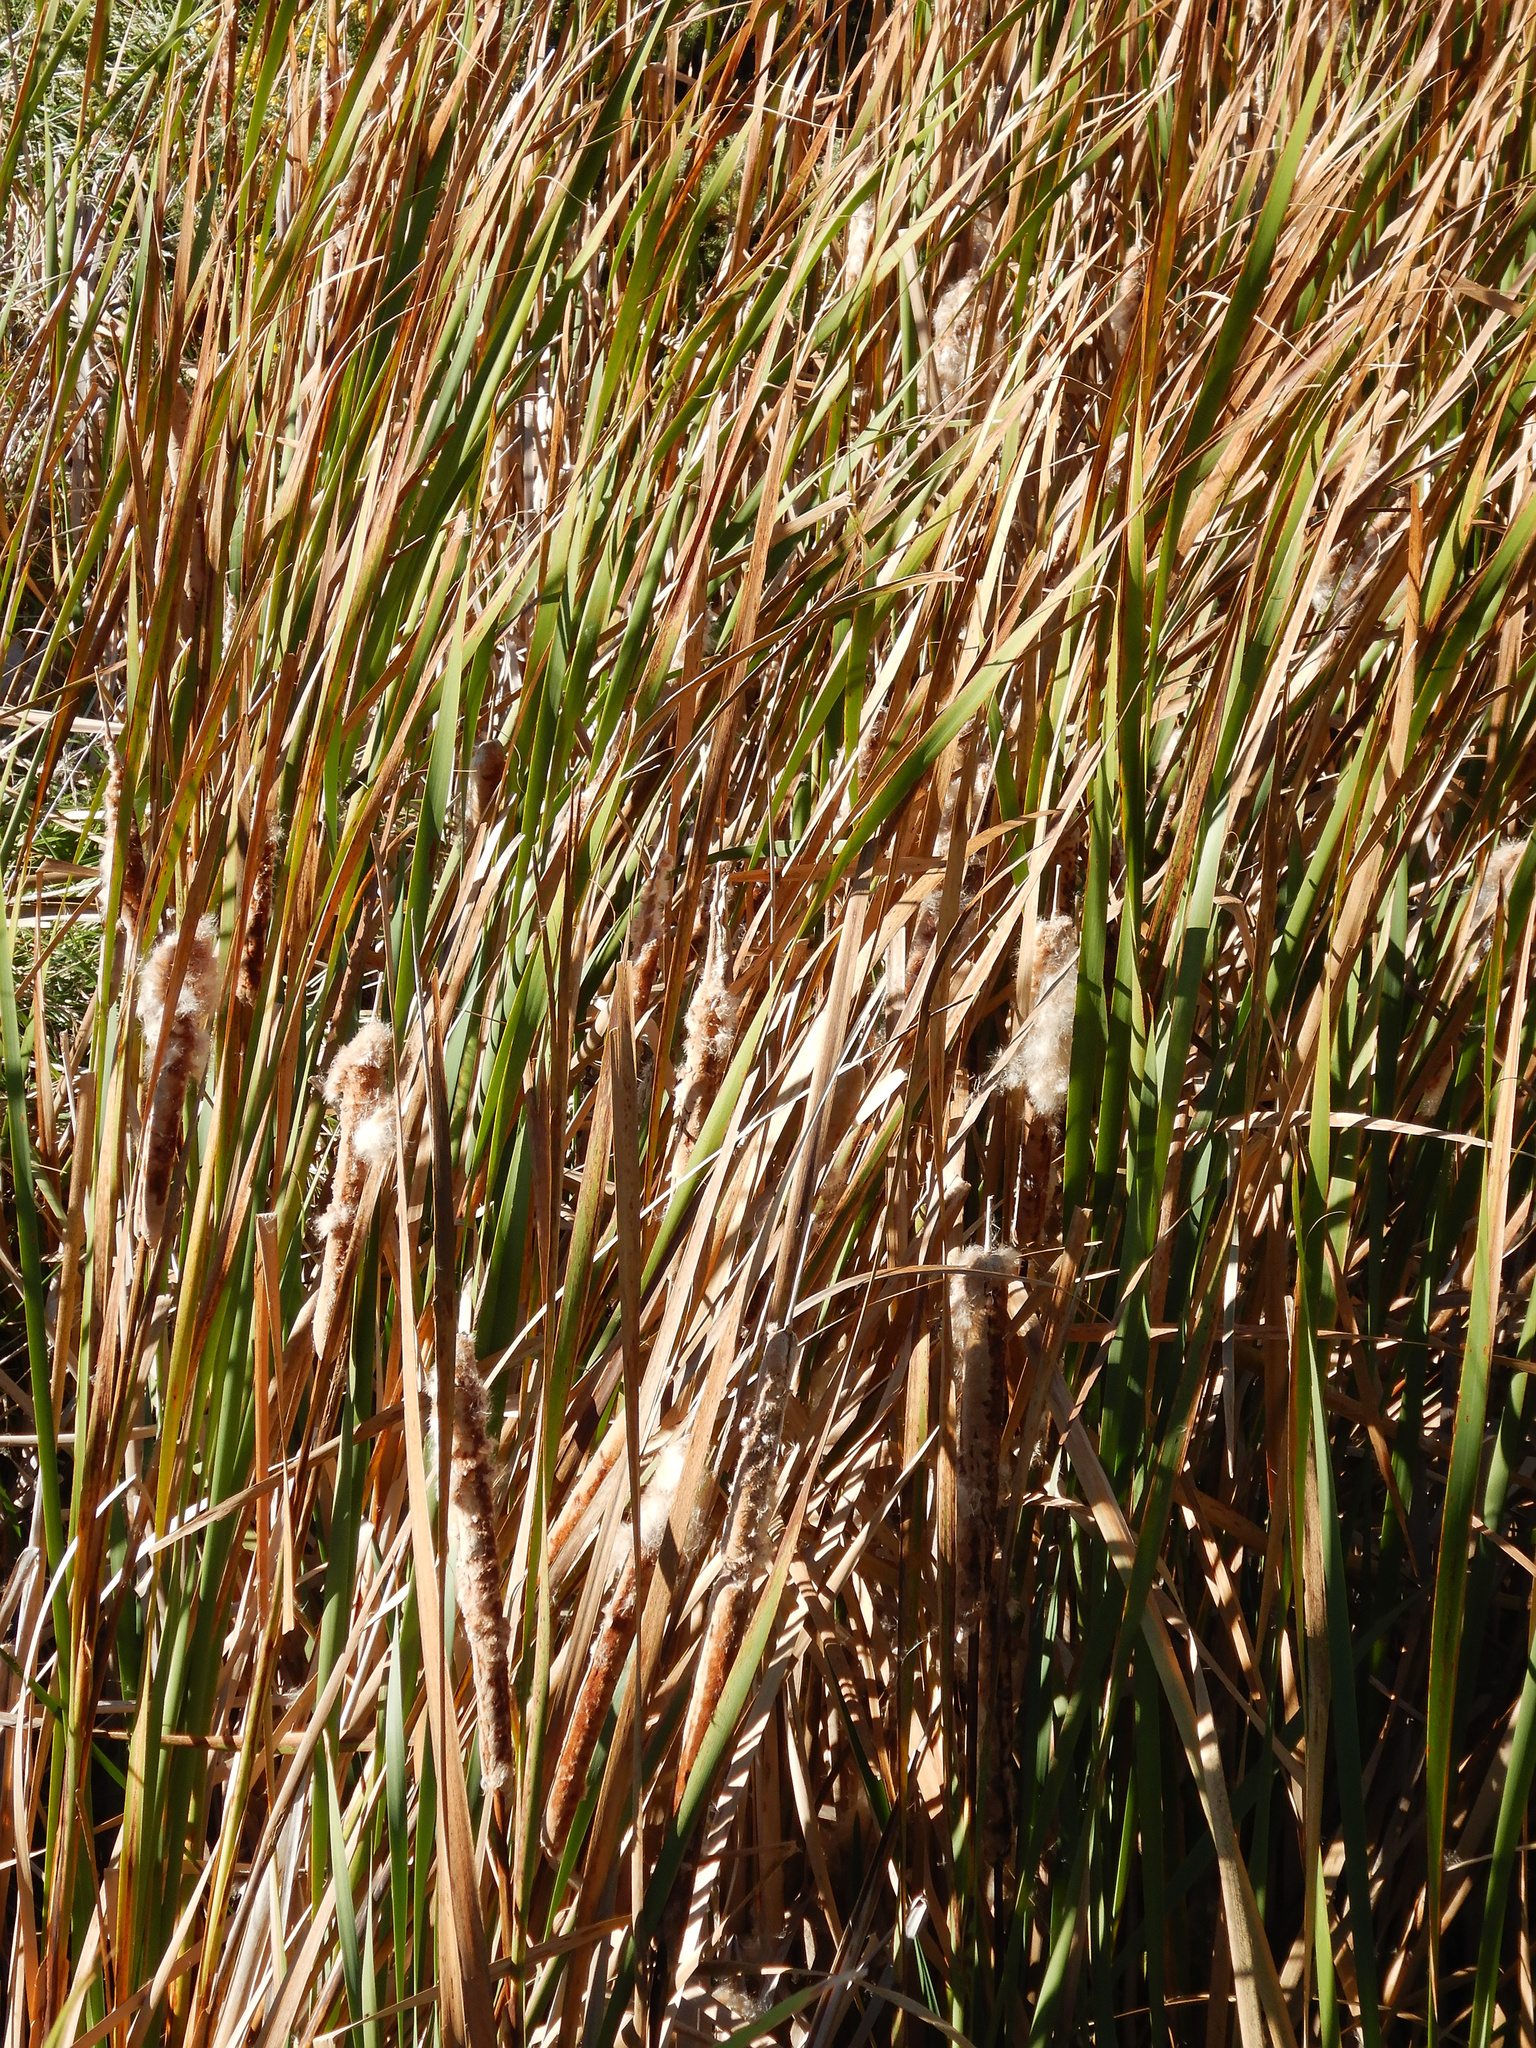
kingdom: Plantae
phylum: Tracheophyta
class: Liliopsida
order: Poales
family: Typhaceae
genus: Typha
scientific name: Typha orientalis
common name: Bullrush
